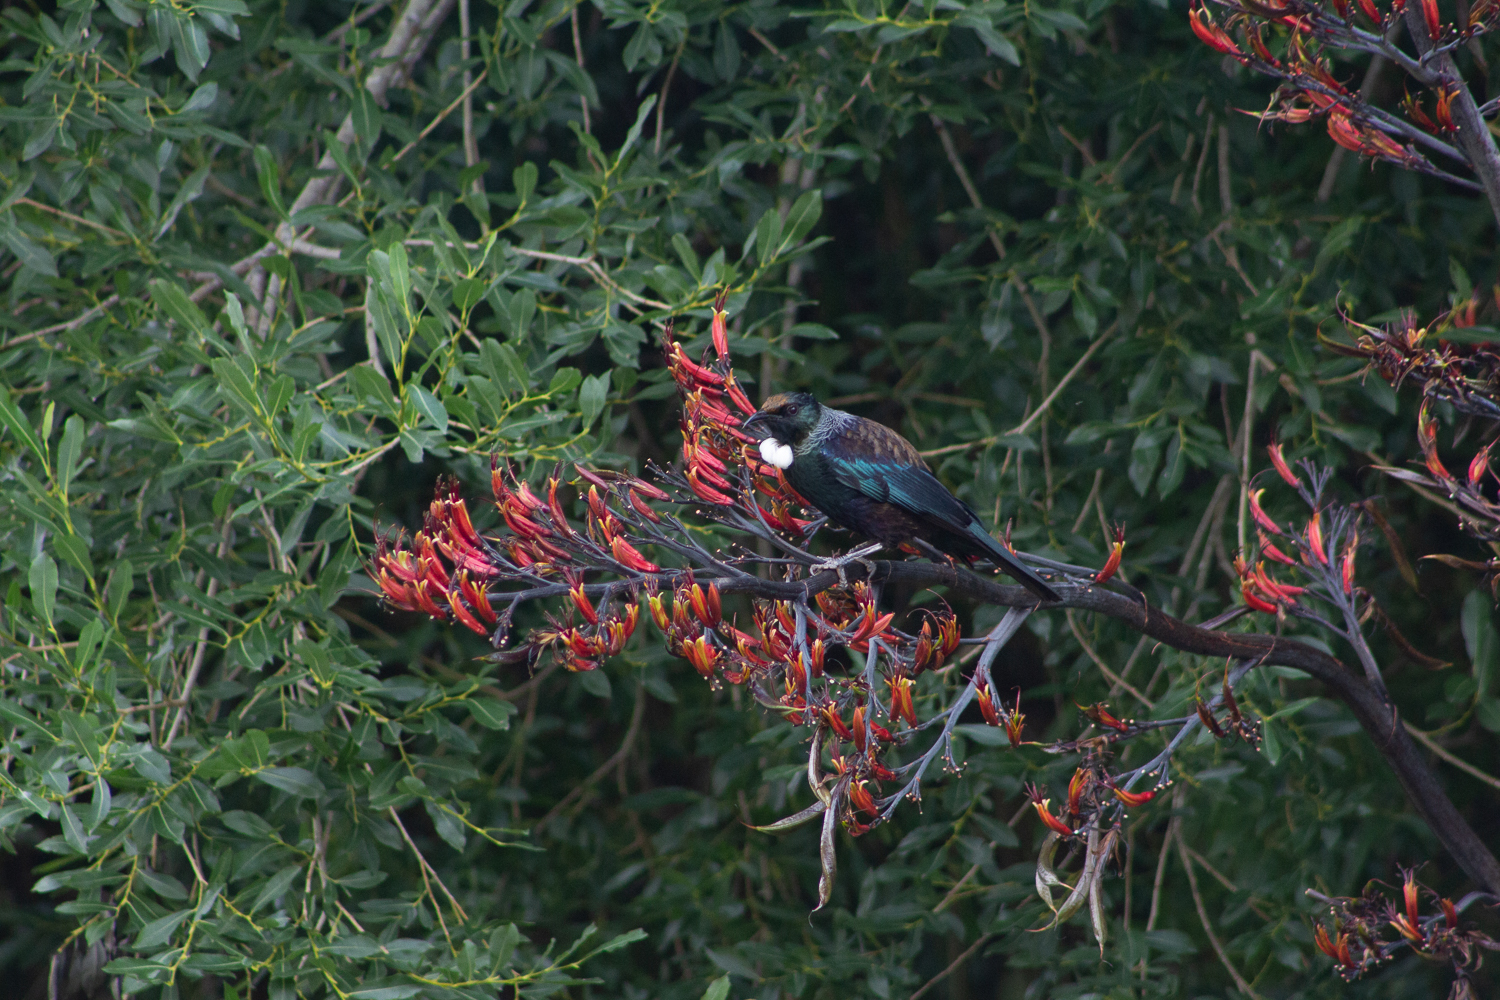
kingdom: Animalia
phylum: Chordata
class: Aves
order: Passeriformes
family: Meliphagidae
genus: Prosthemadera
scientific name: Prosthemadera novaeseelandiae
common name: Tui
